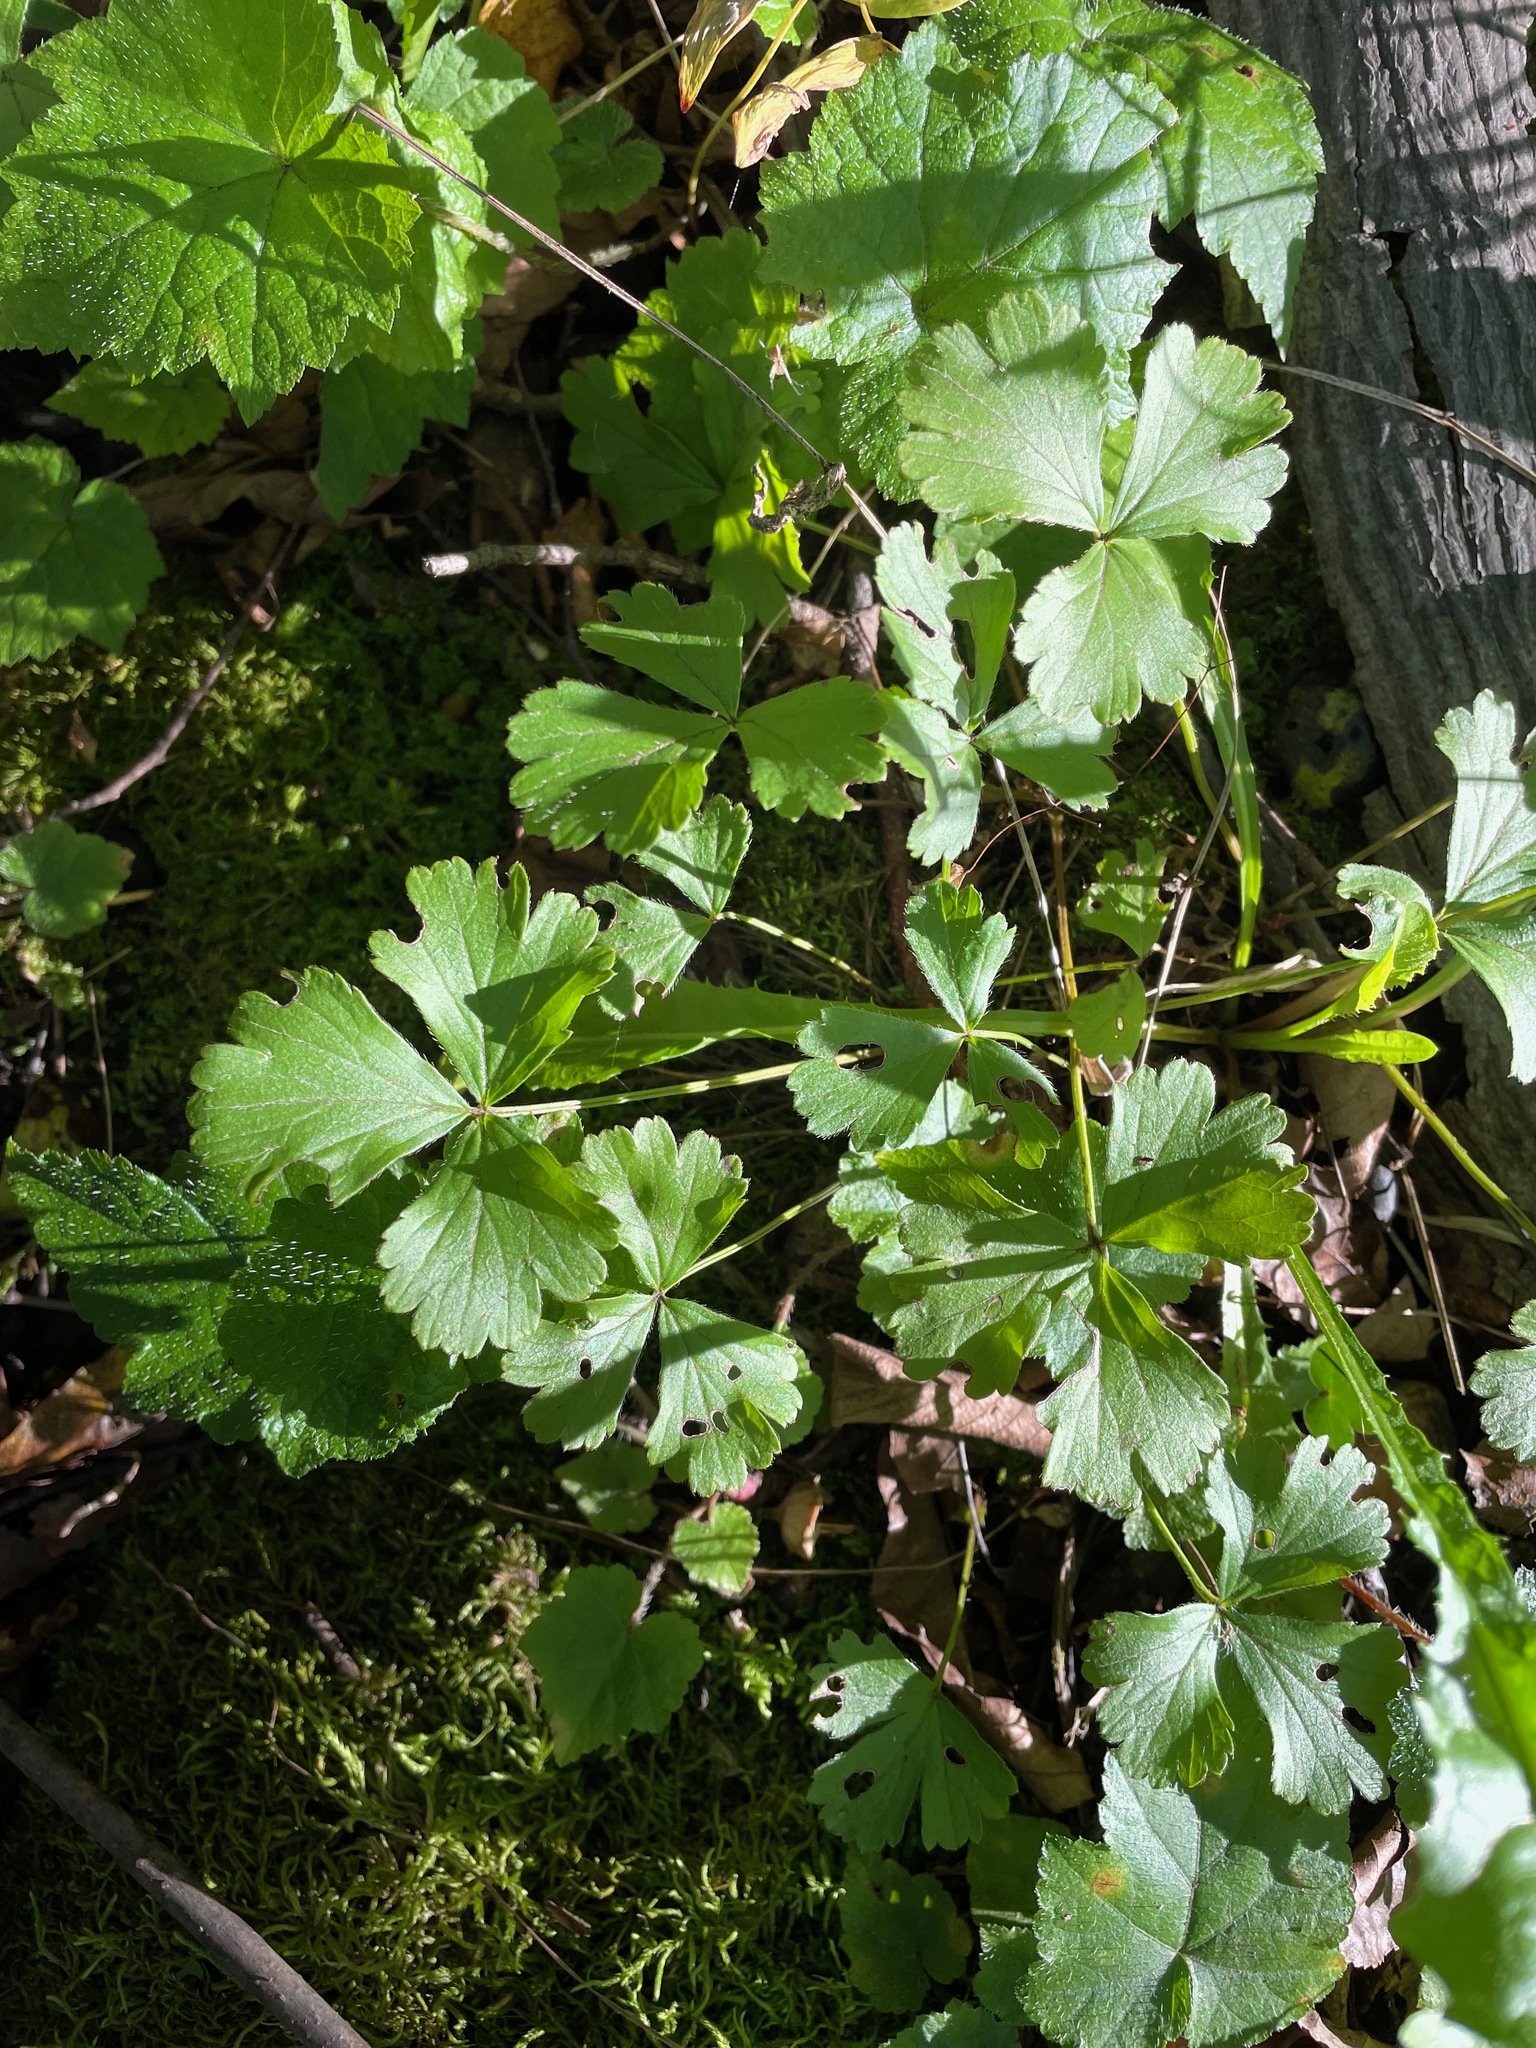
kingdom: Plantae
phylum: Tracheophyta
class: Magnoliopsida
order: Rosales
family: Rosaceae
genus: Geum
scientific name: Geum fragarioides
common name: Appalachian barren strawberry
